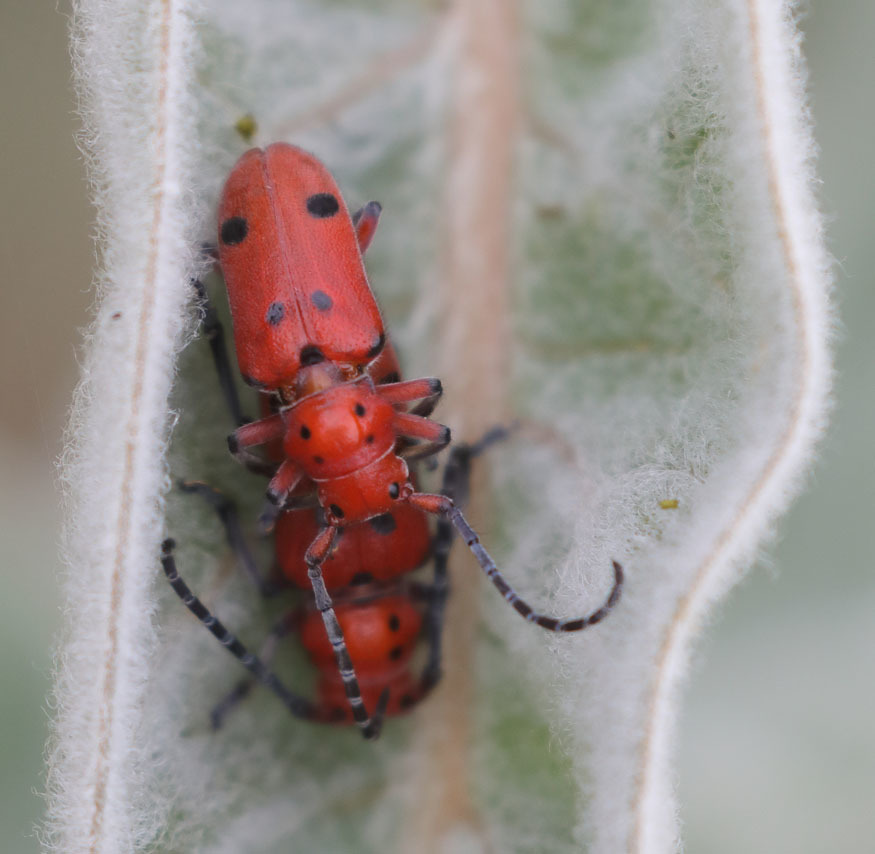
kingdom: Animalia
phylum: Arthropoda
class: Insecta
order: Coleoptera
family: Cerambycidae
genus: Tetraopes
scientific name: Tetraopes basalis
